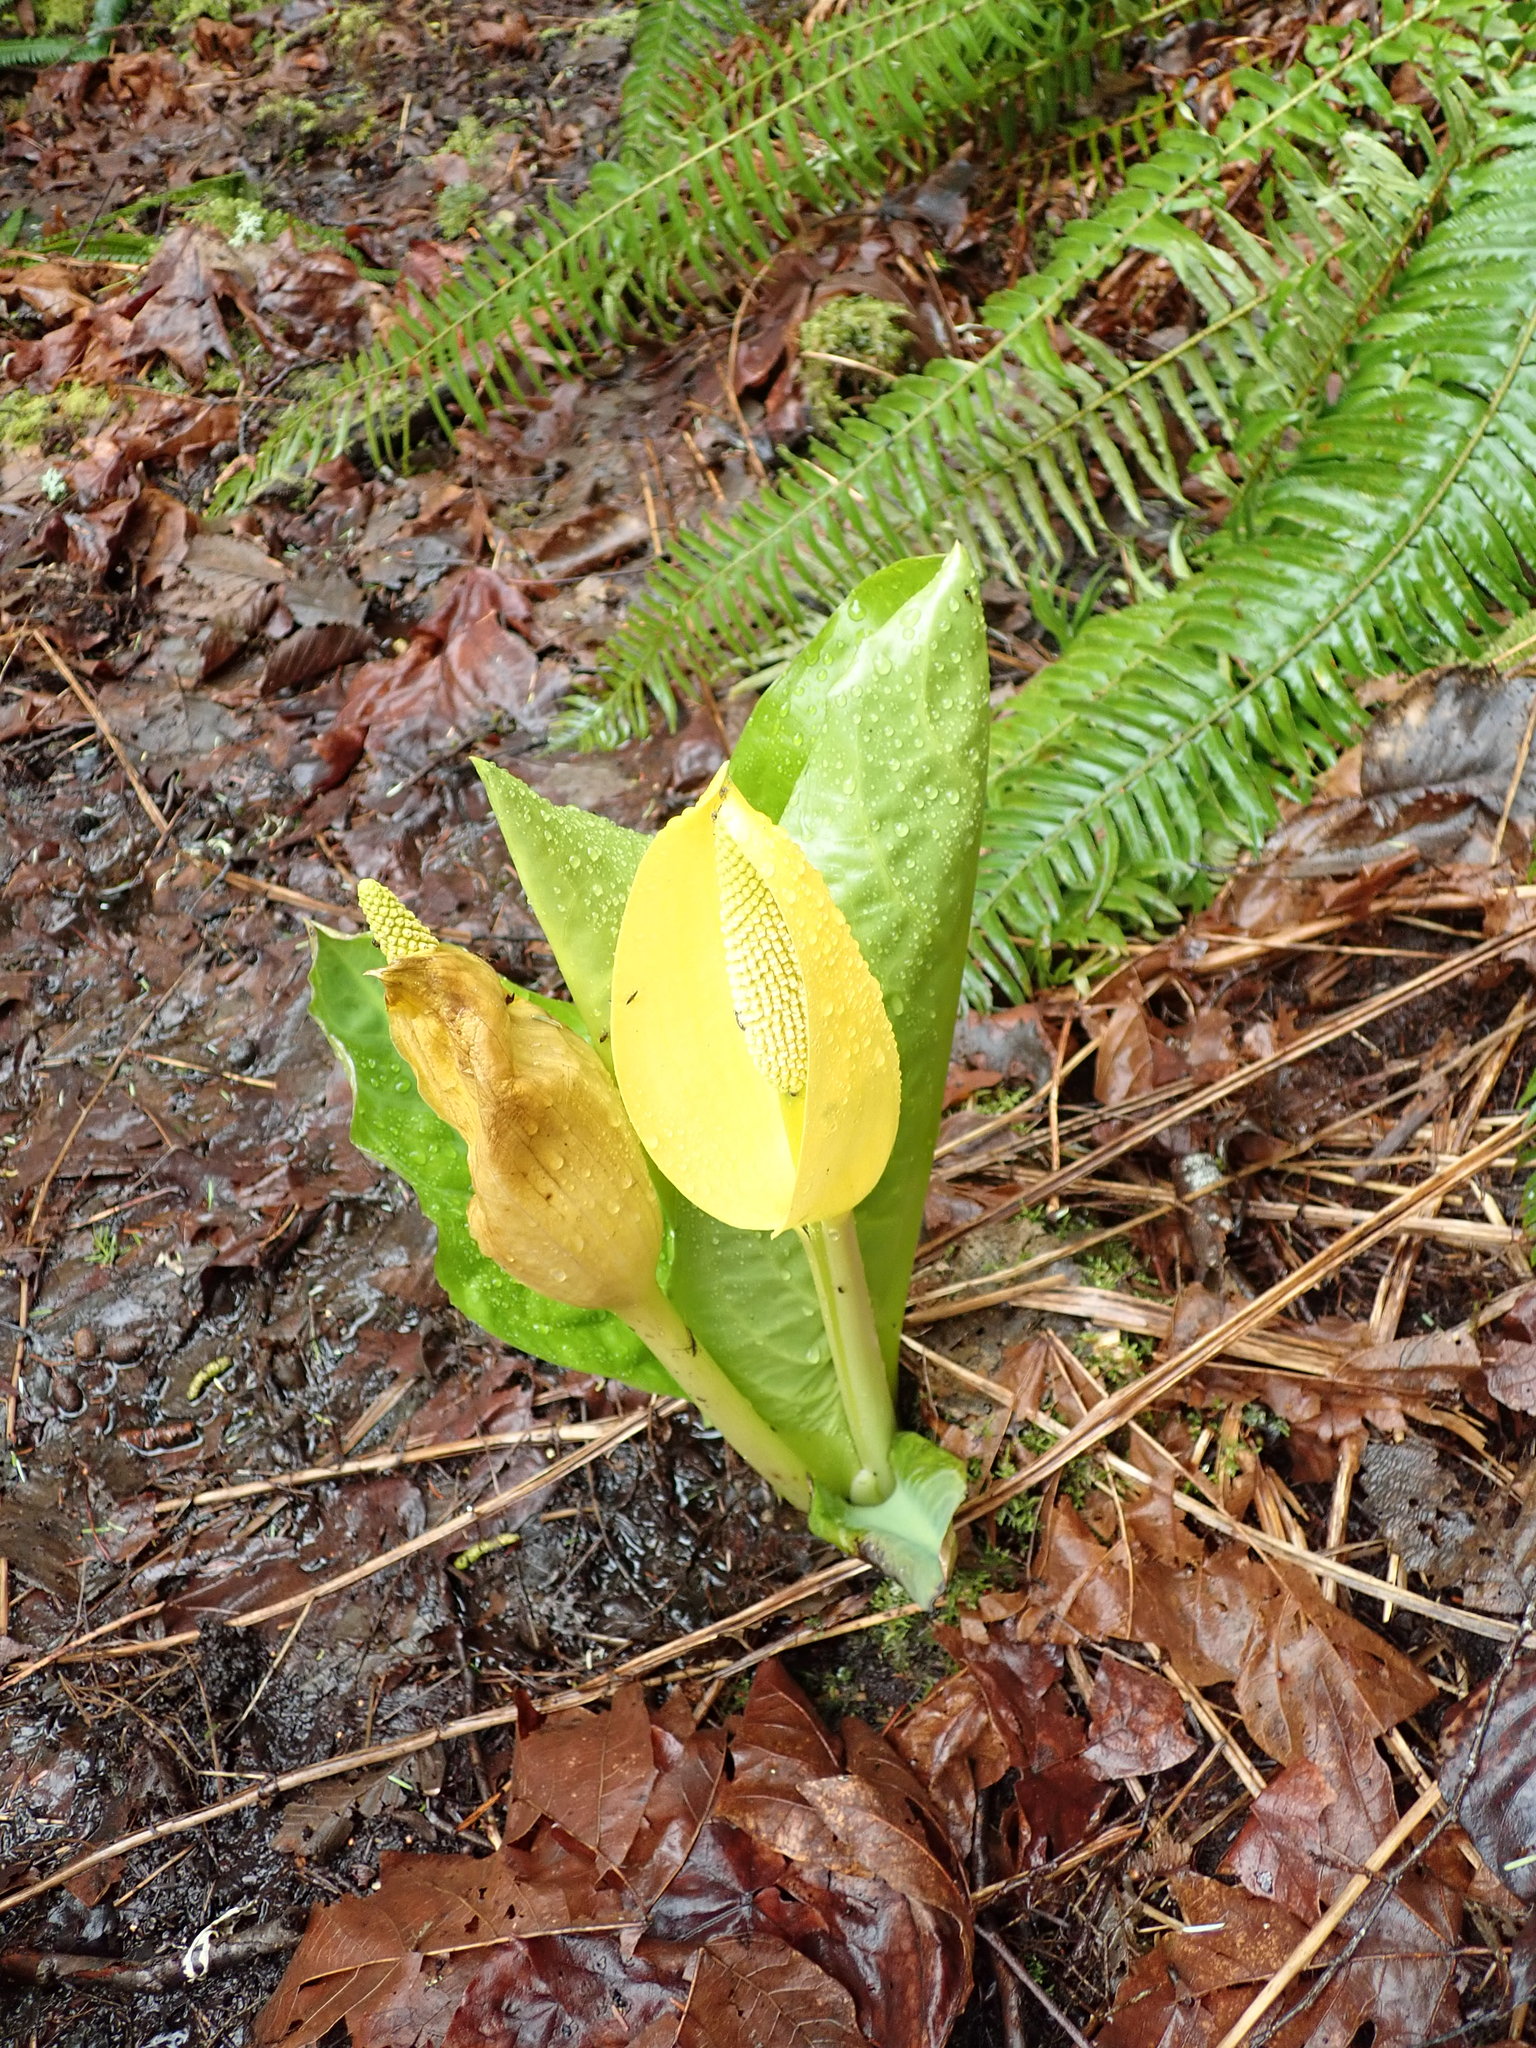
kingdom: Plantae
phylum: Tracheophyta
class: Liliopsida
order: Alismatales
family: Araceae
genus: Lysichiton
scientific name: Lysichiton americanus
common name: American skunk cabbage
